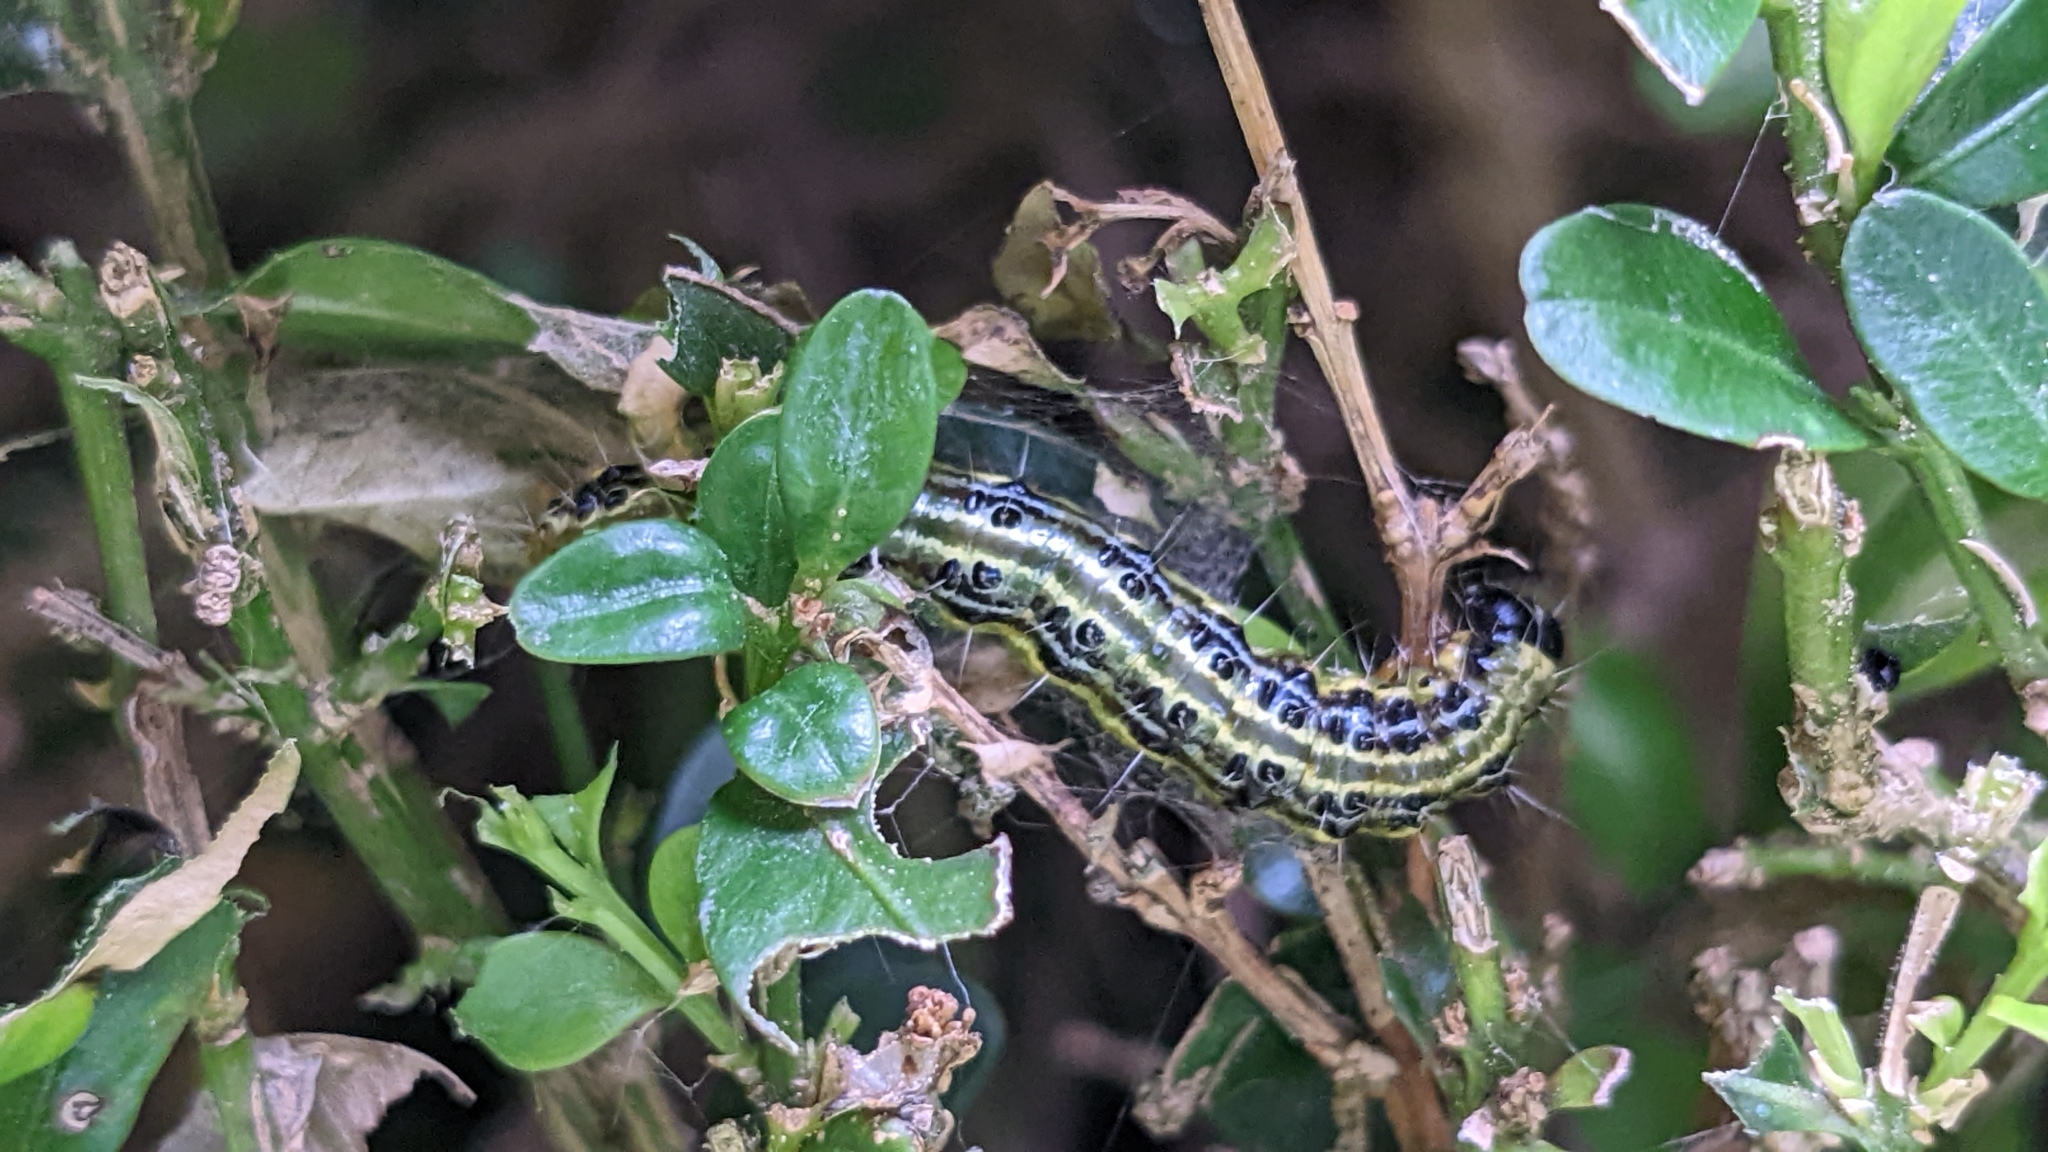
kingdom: Animalia
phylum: Arthropoda
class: Insecta
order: Lepidoptera
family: Crambidae
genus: Cydalima
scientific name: Cydalima perspectalis
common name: Box tree moth
